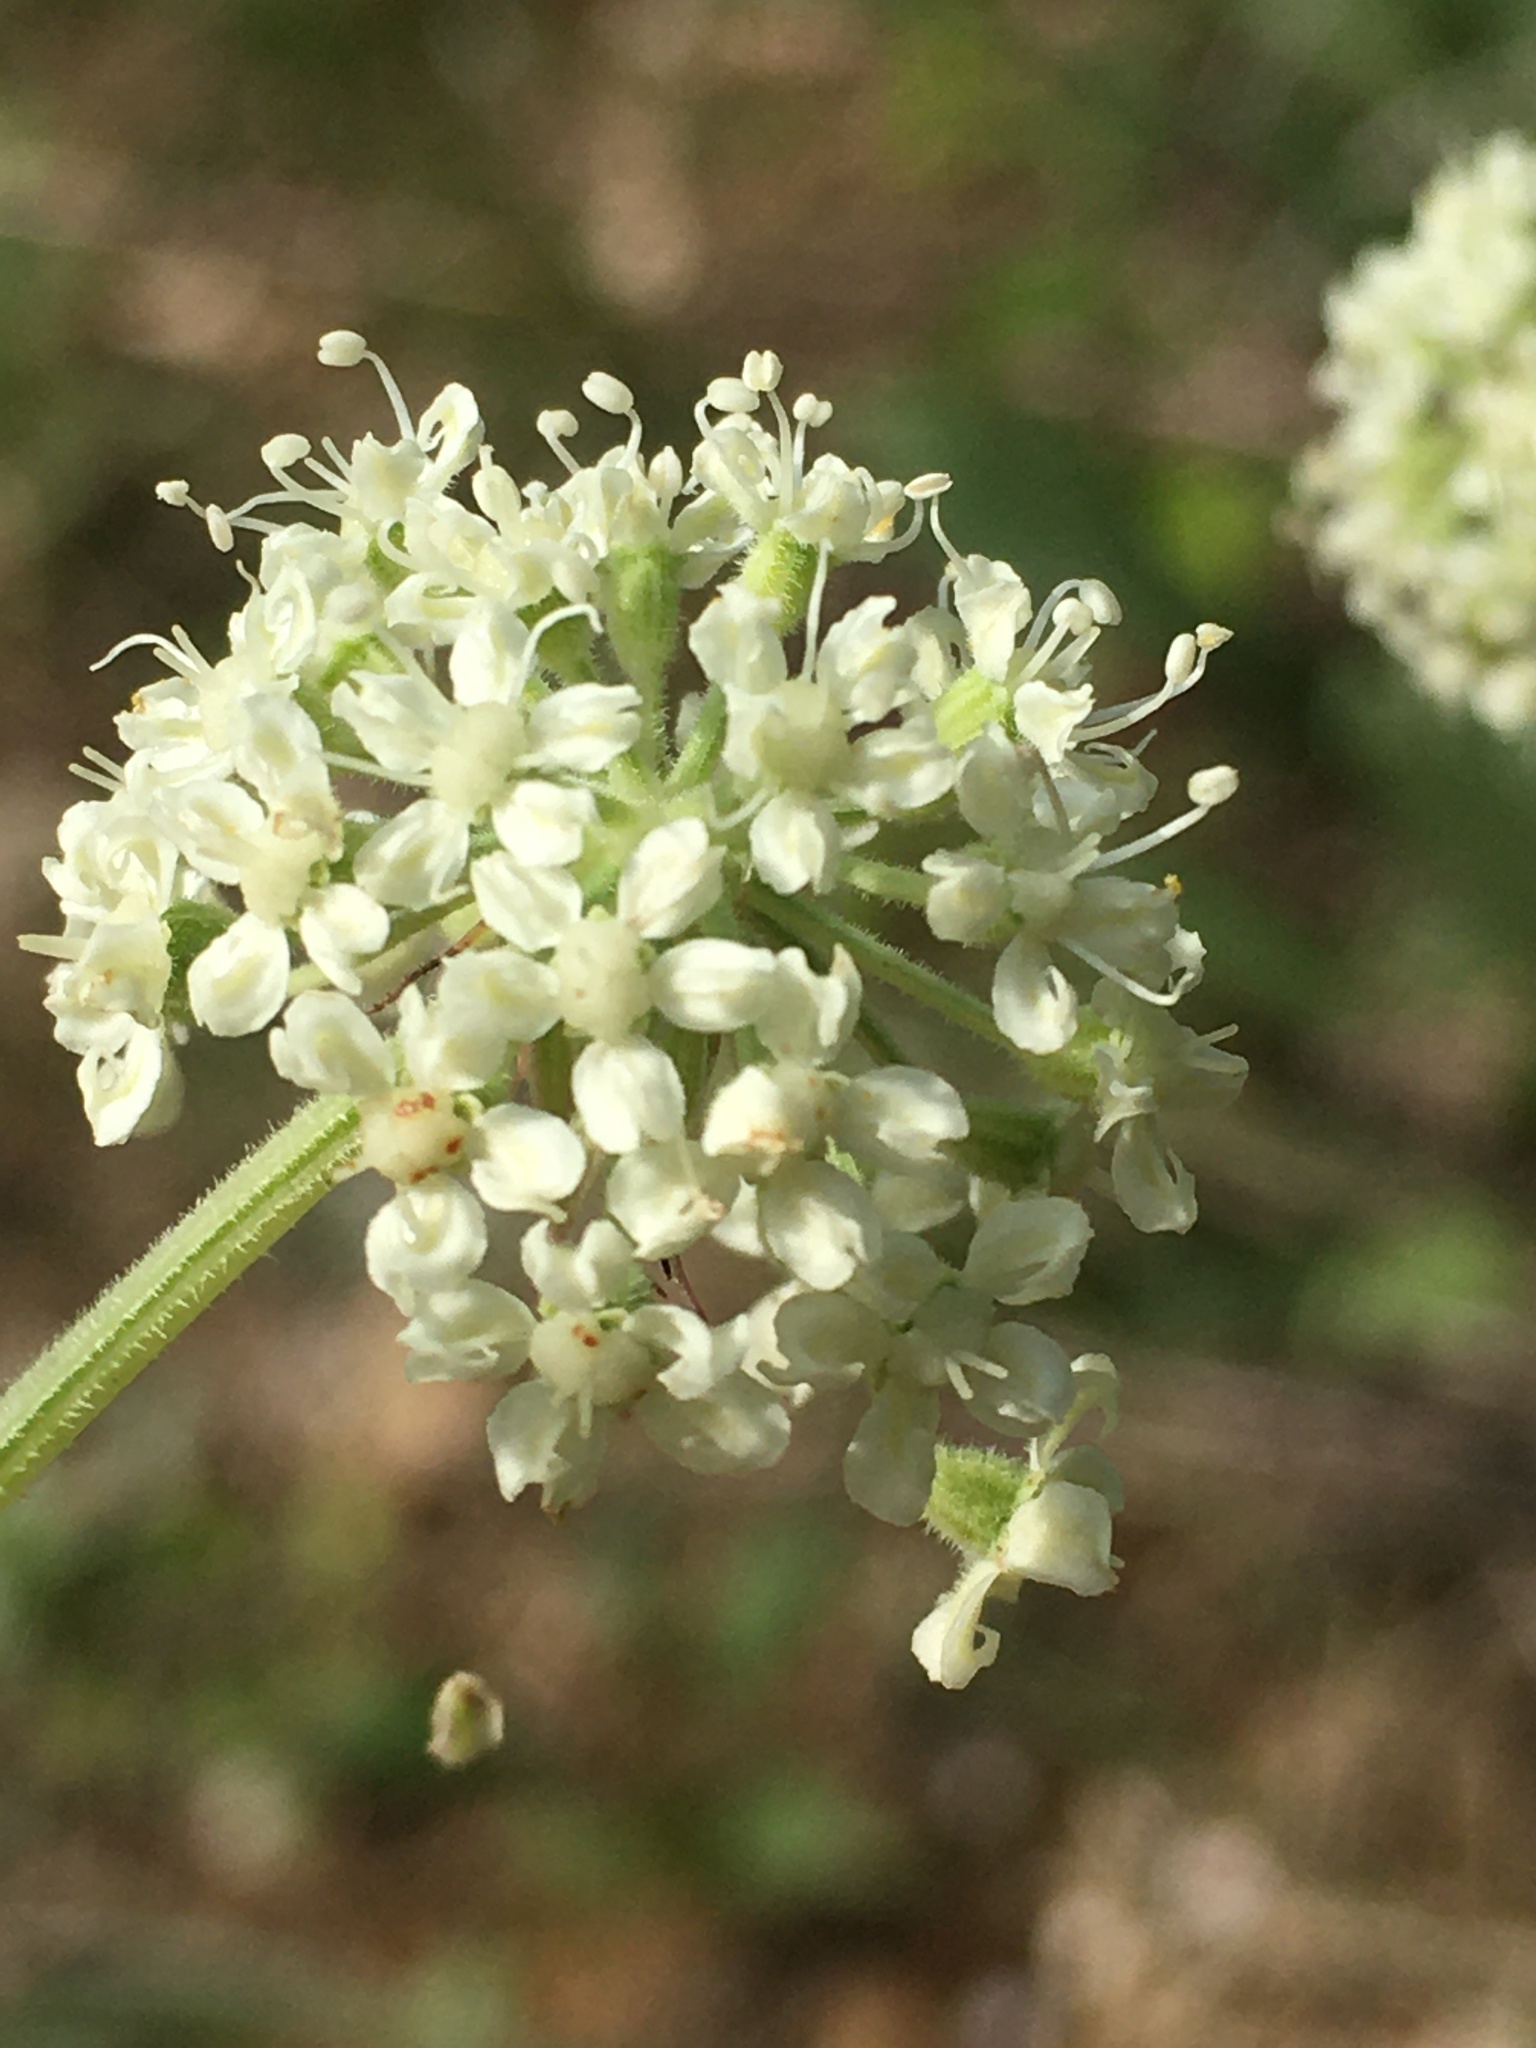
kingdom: Plantae
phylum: Tracheophyta
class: Magnoliopsida
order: Apiales
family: Apiaceae
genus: Angelica
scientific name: Angelica venenosa
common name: Hairy angelica
